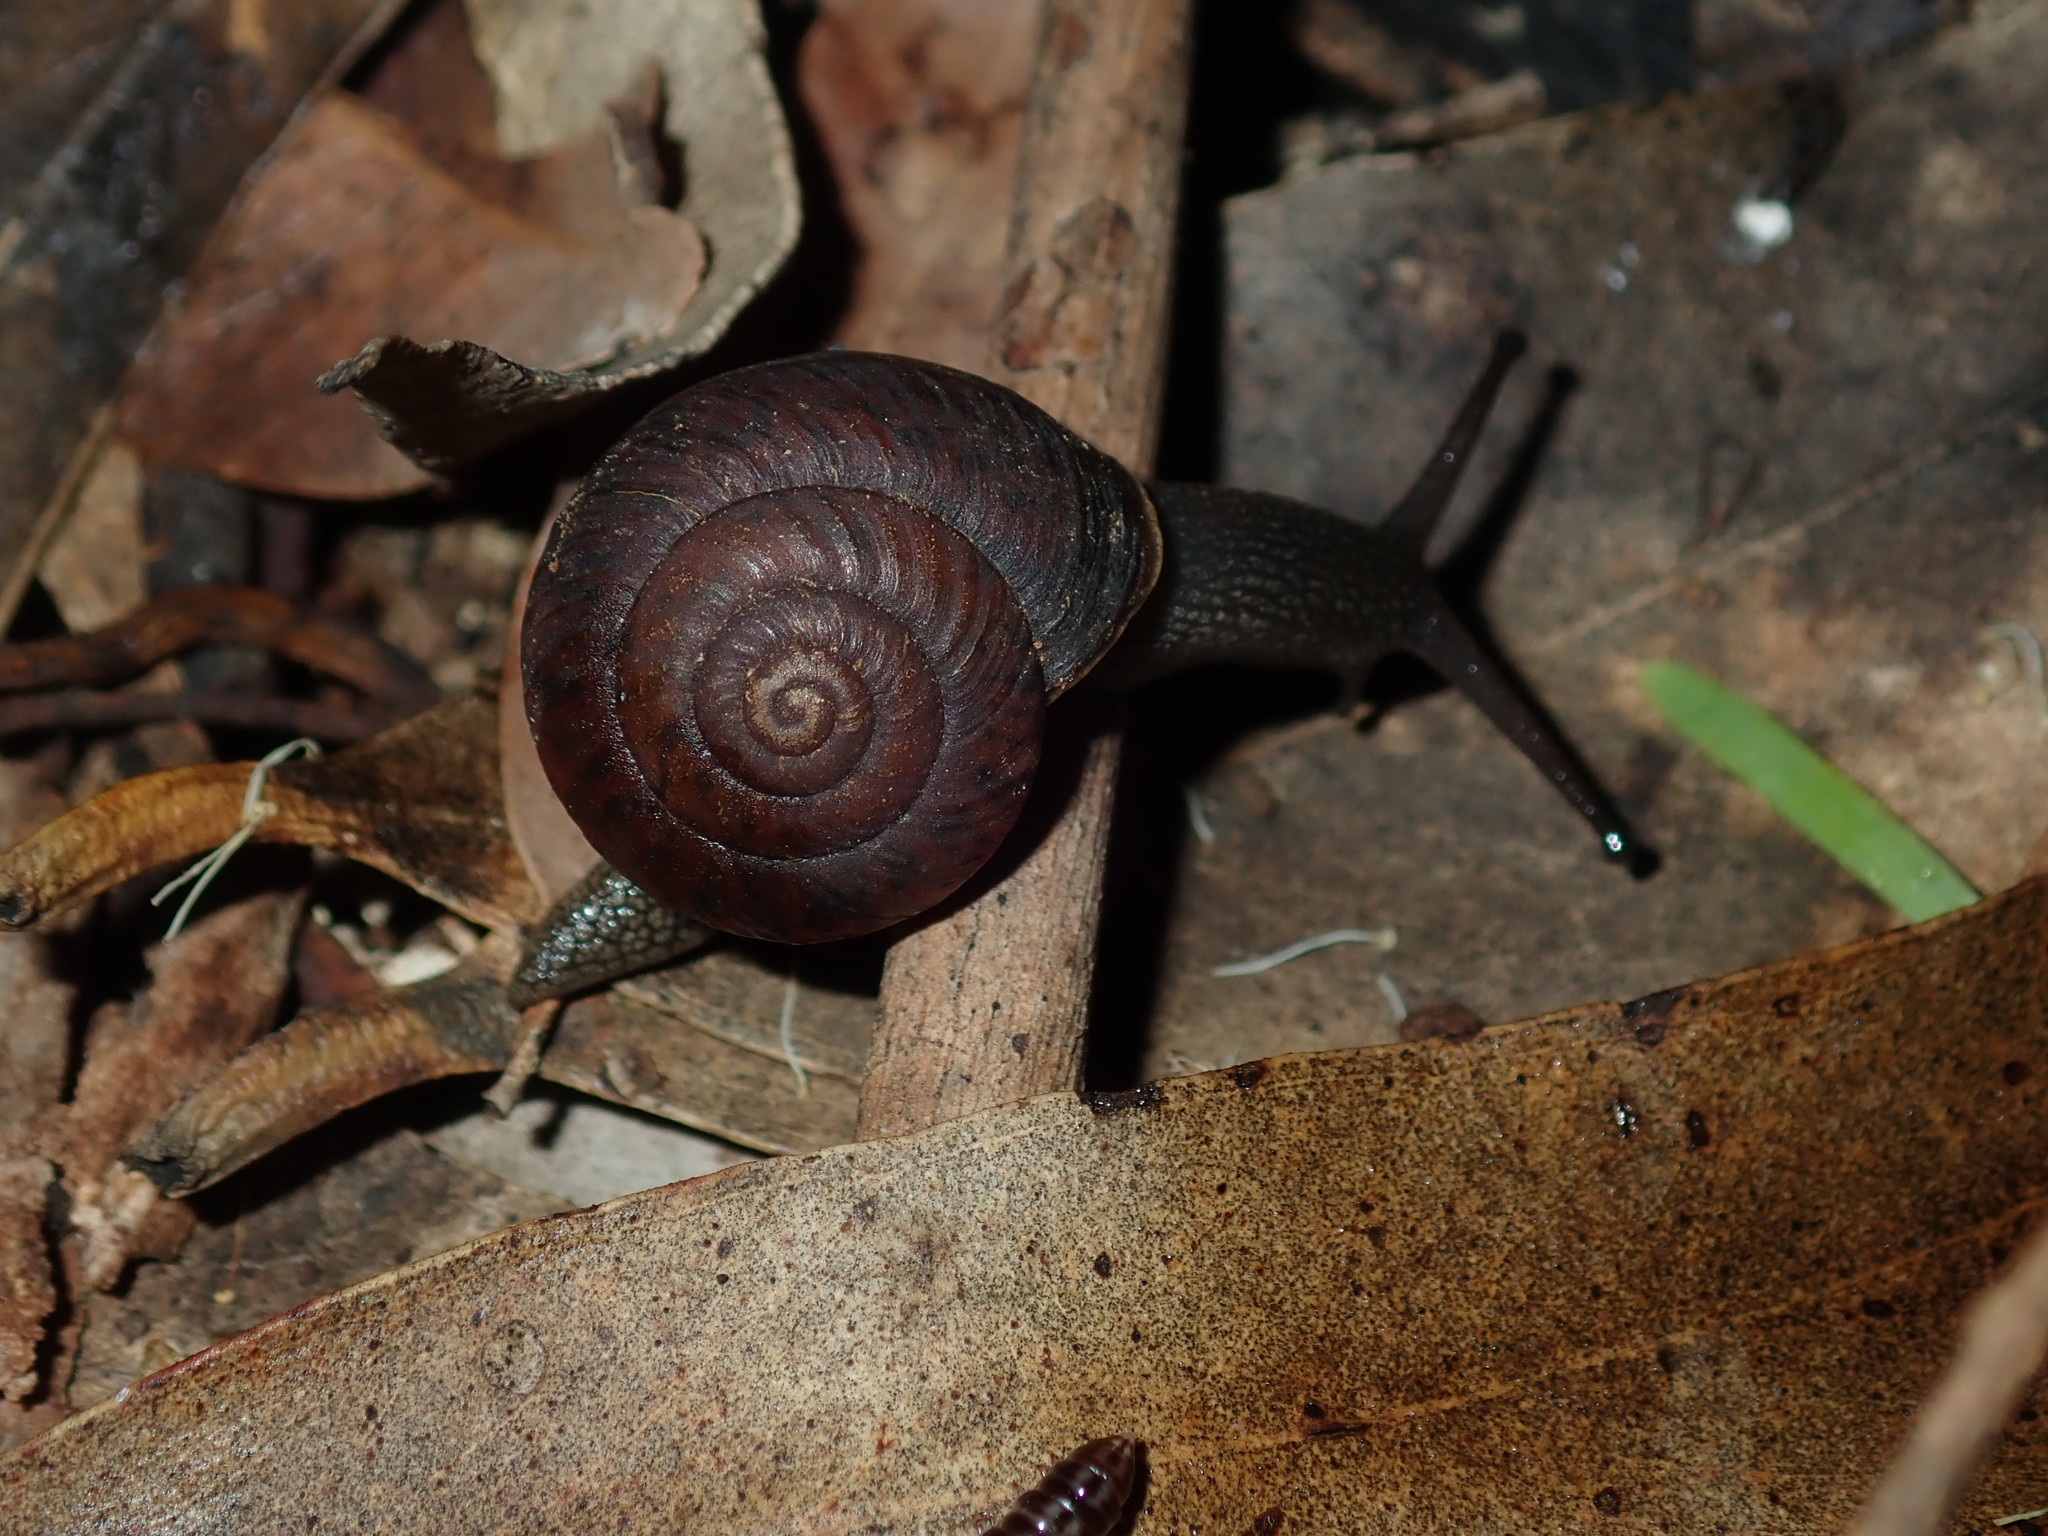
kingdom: Animalia
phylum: Mollusca
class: Gastropoda
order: Stylommatophora
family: Camaenidae
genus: Sauroconcha
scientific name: Sauroconcha sheai
